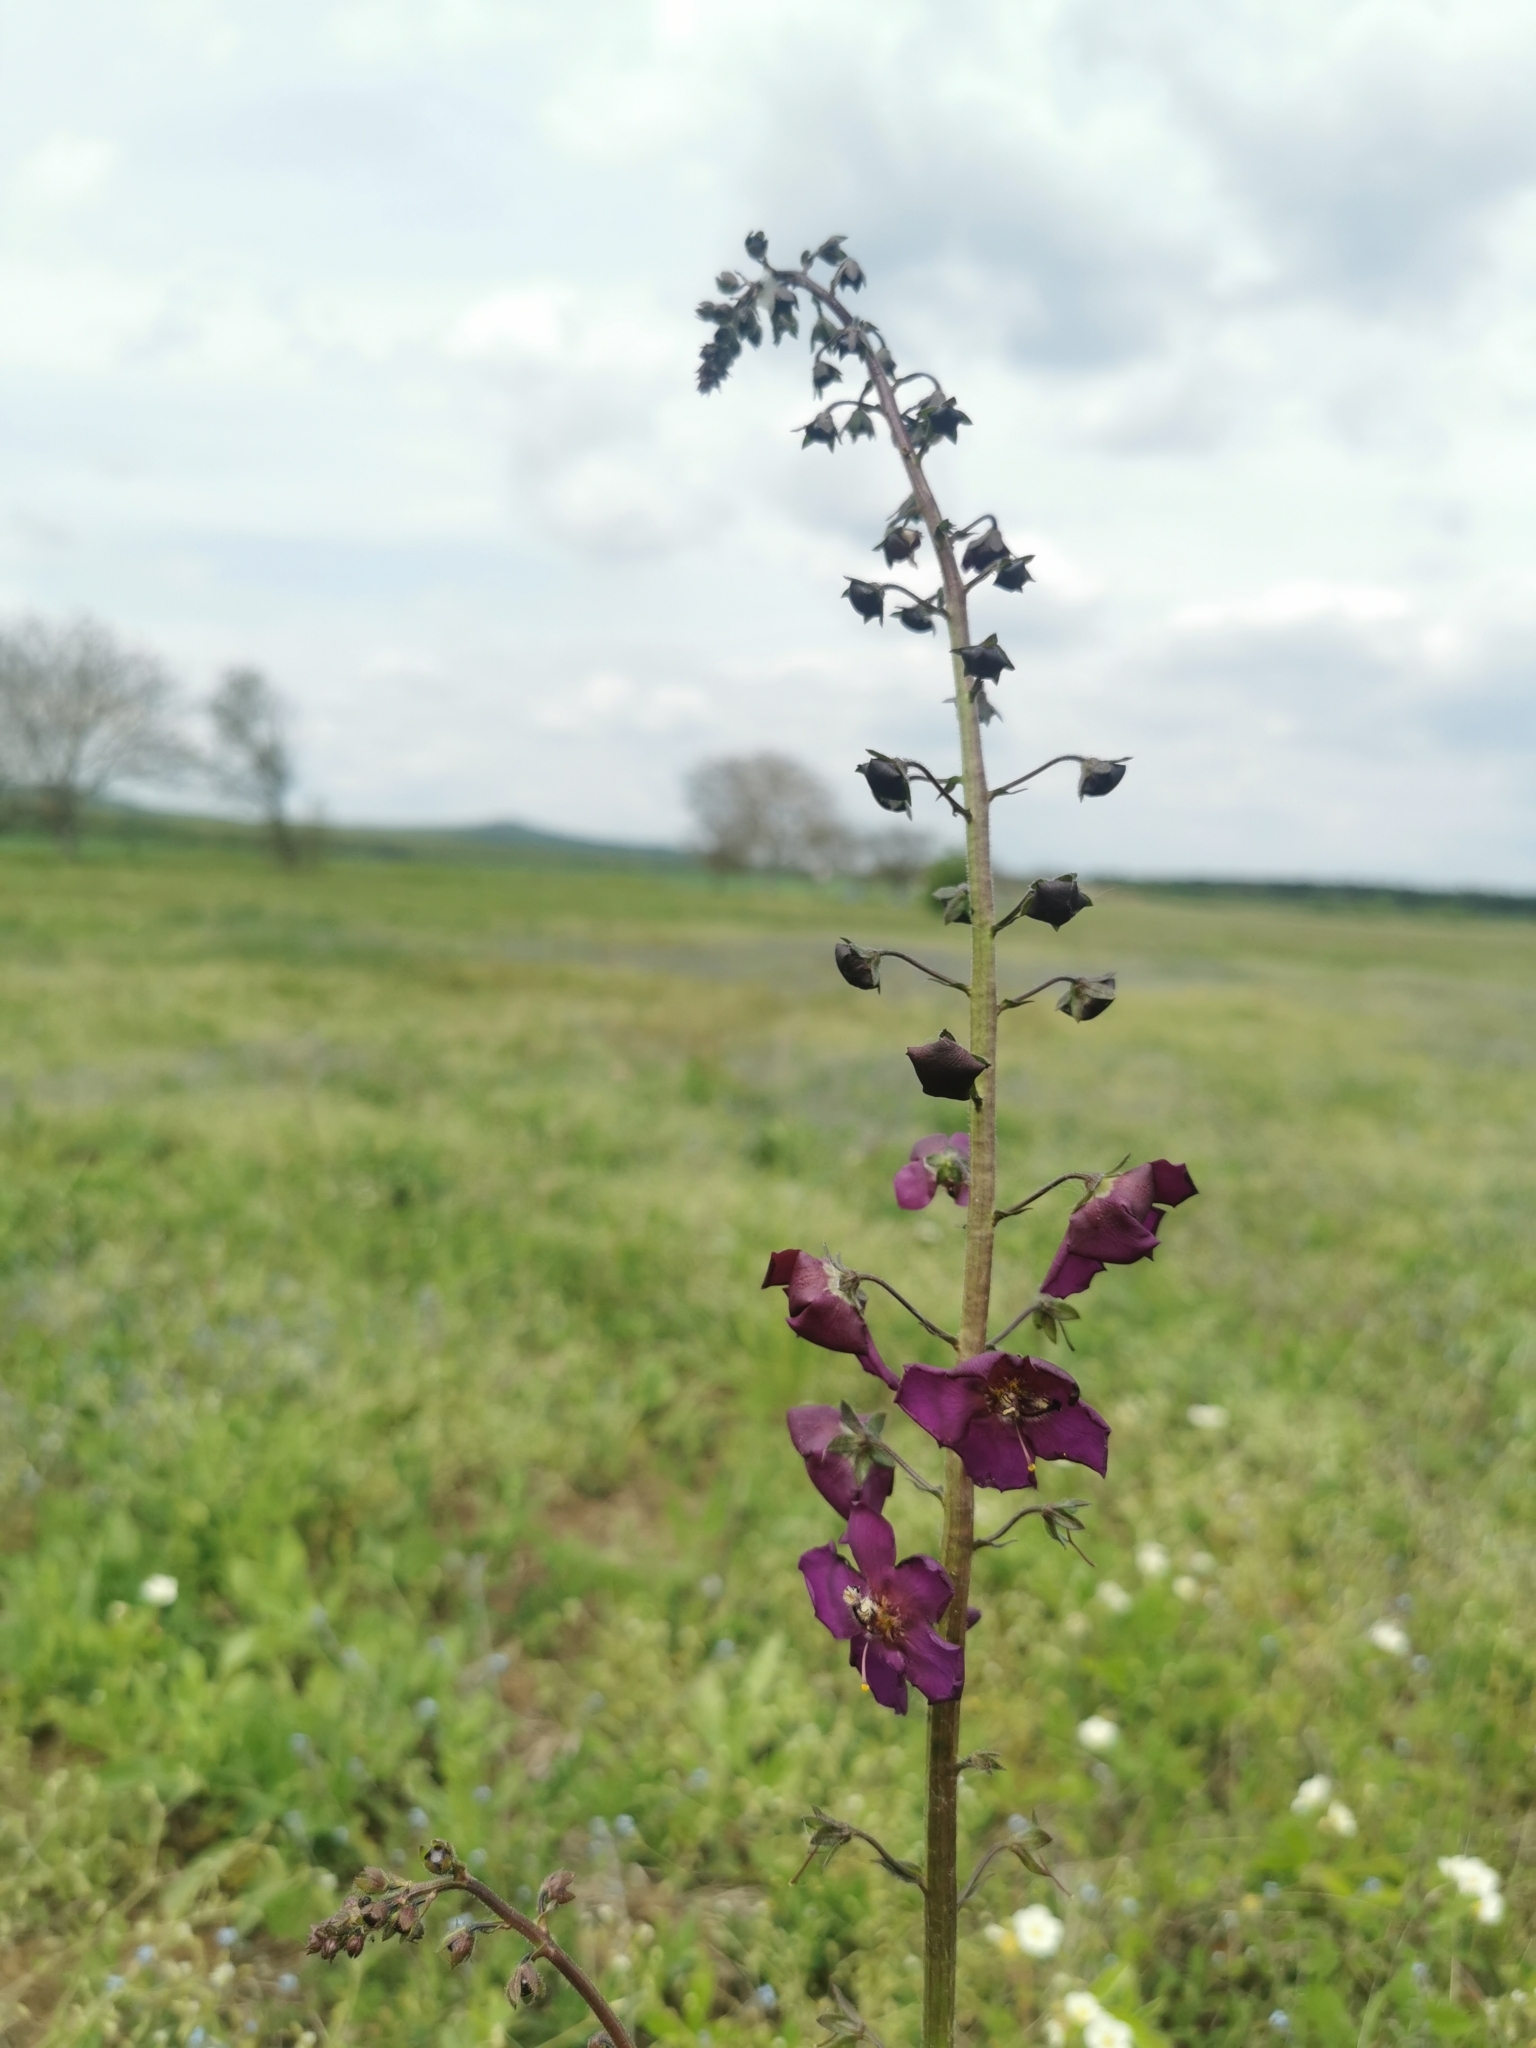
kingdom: Plantae
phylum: Tracheophyta
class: Magnoliopsida
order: Lamiales
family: Scrophulariaceae
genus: Verbascum
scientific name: Verbascum phoeniceum
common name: Purple mullein
